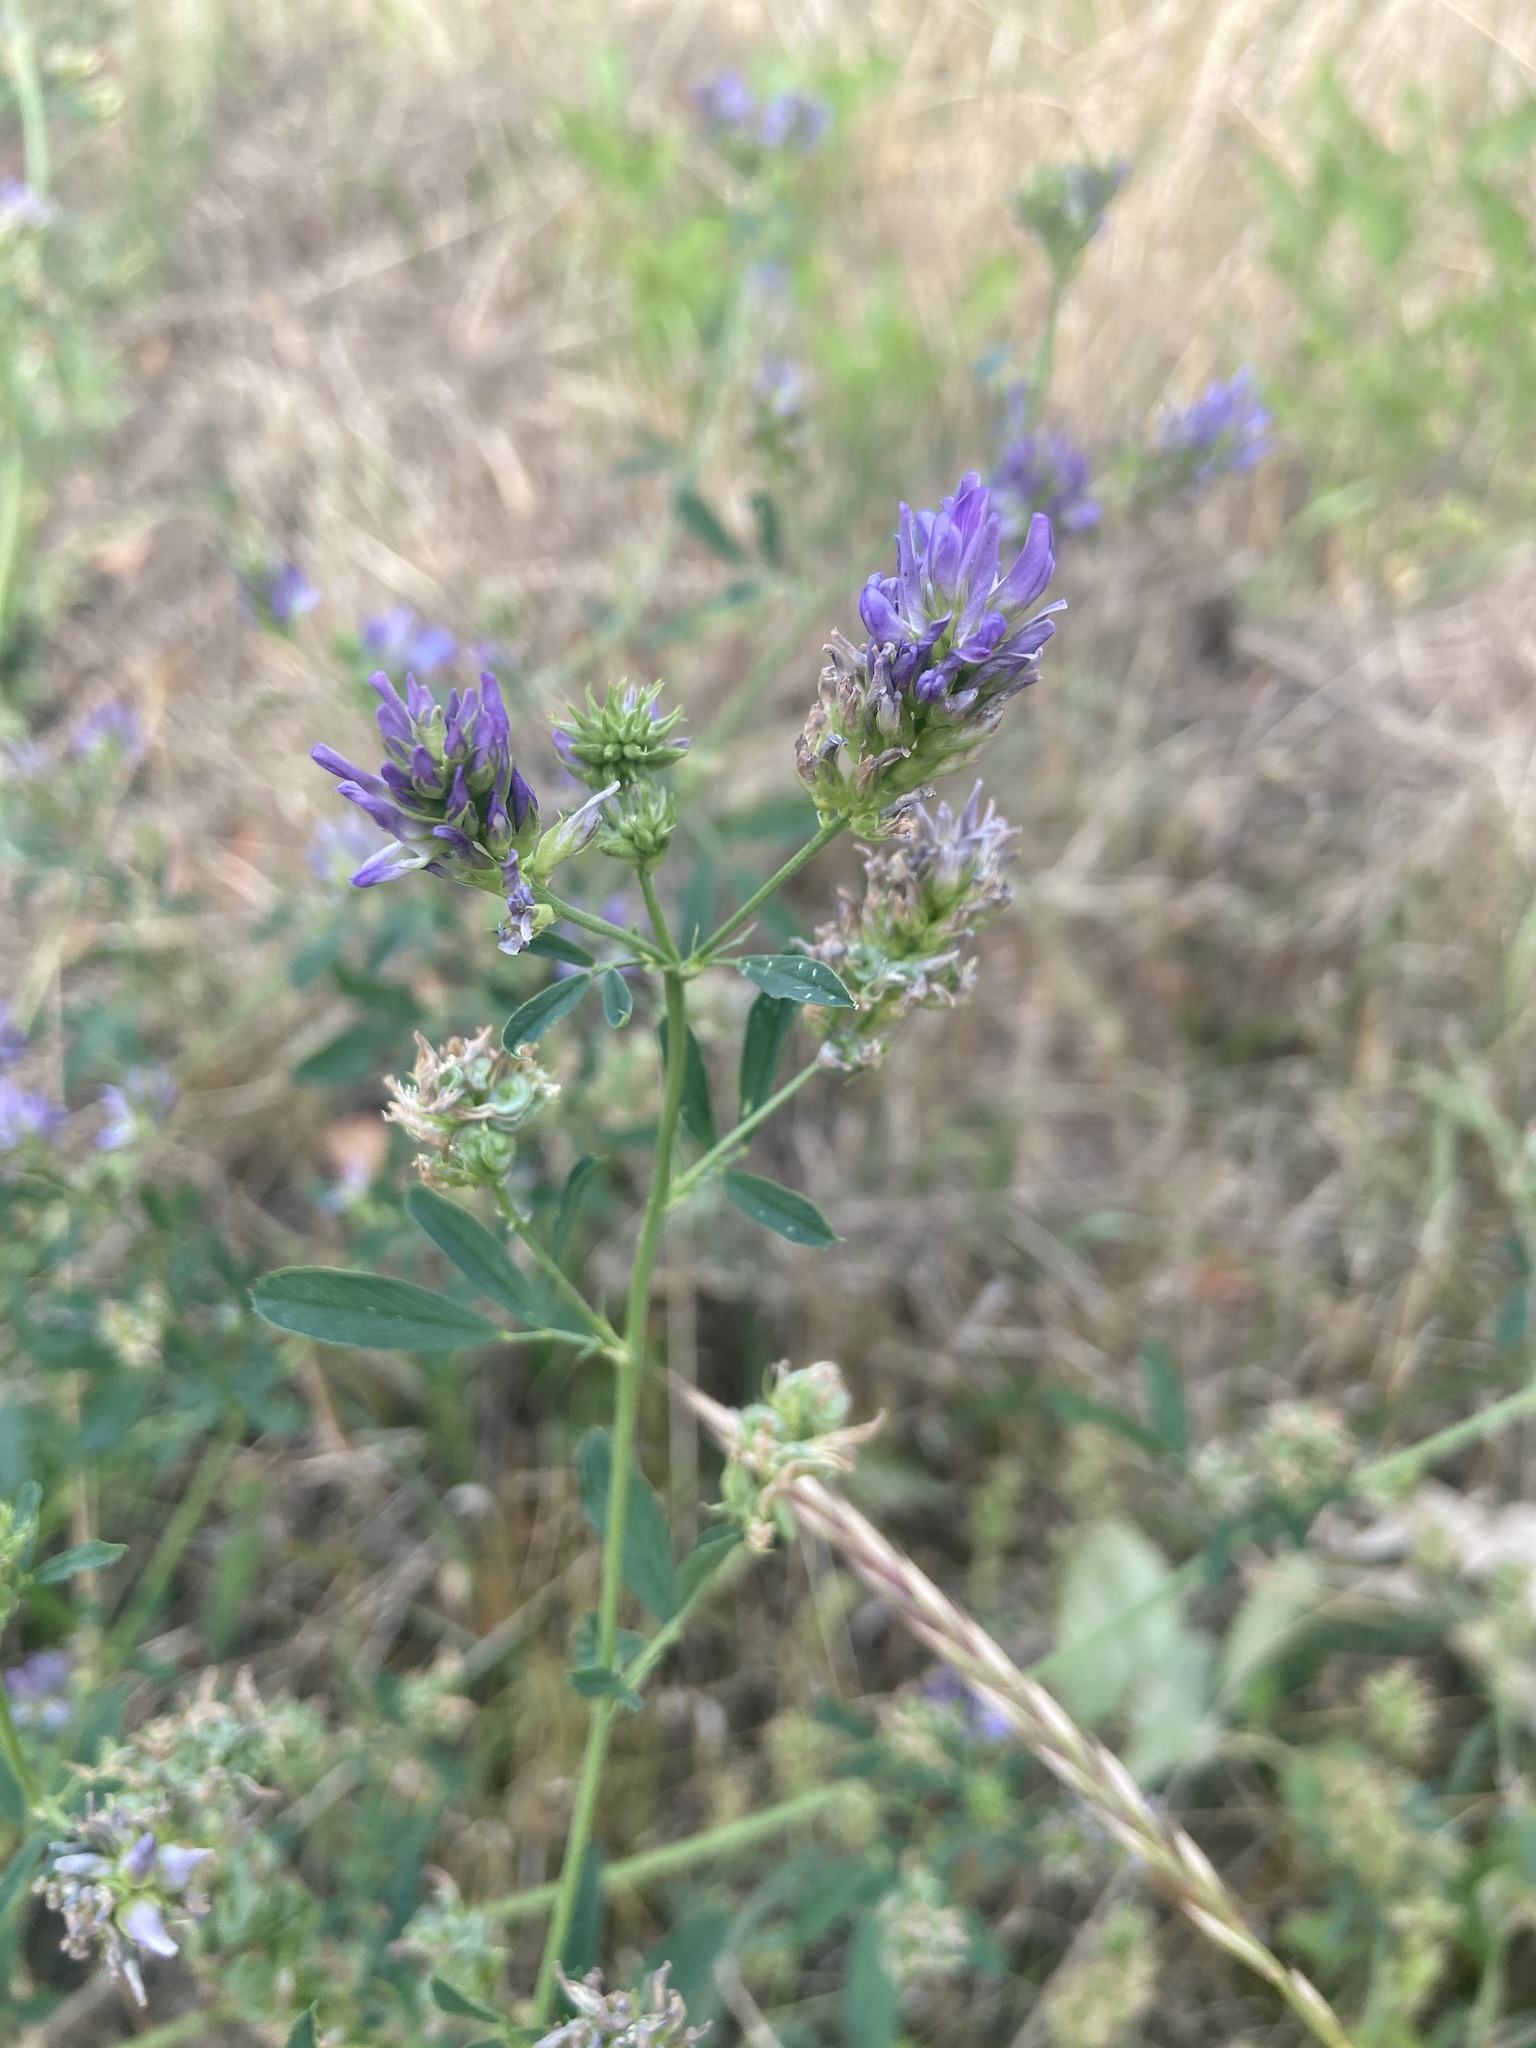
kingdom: Plantae
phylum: Tracheophyta
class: Magnoliopsida
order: Fabales
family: Fabaceae
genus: Medicago
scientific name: Medicago sativa
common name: Alfalfa
